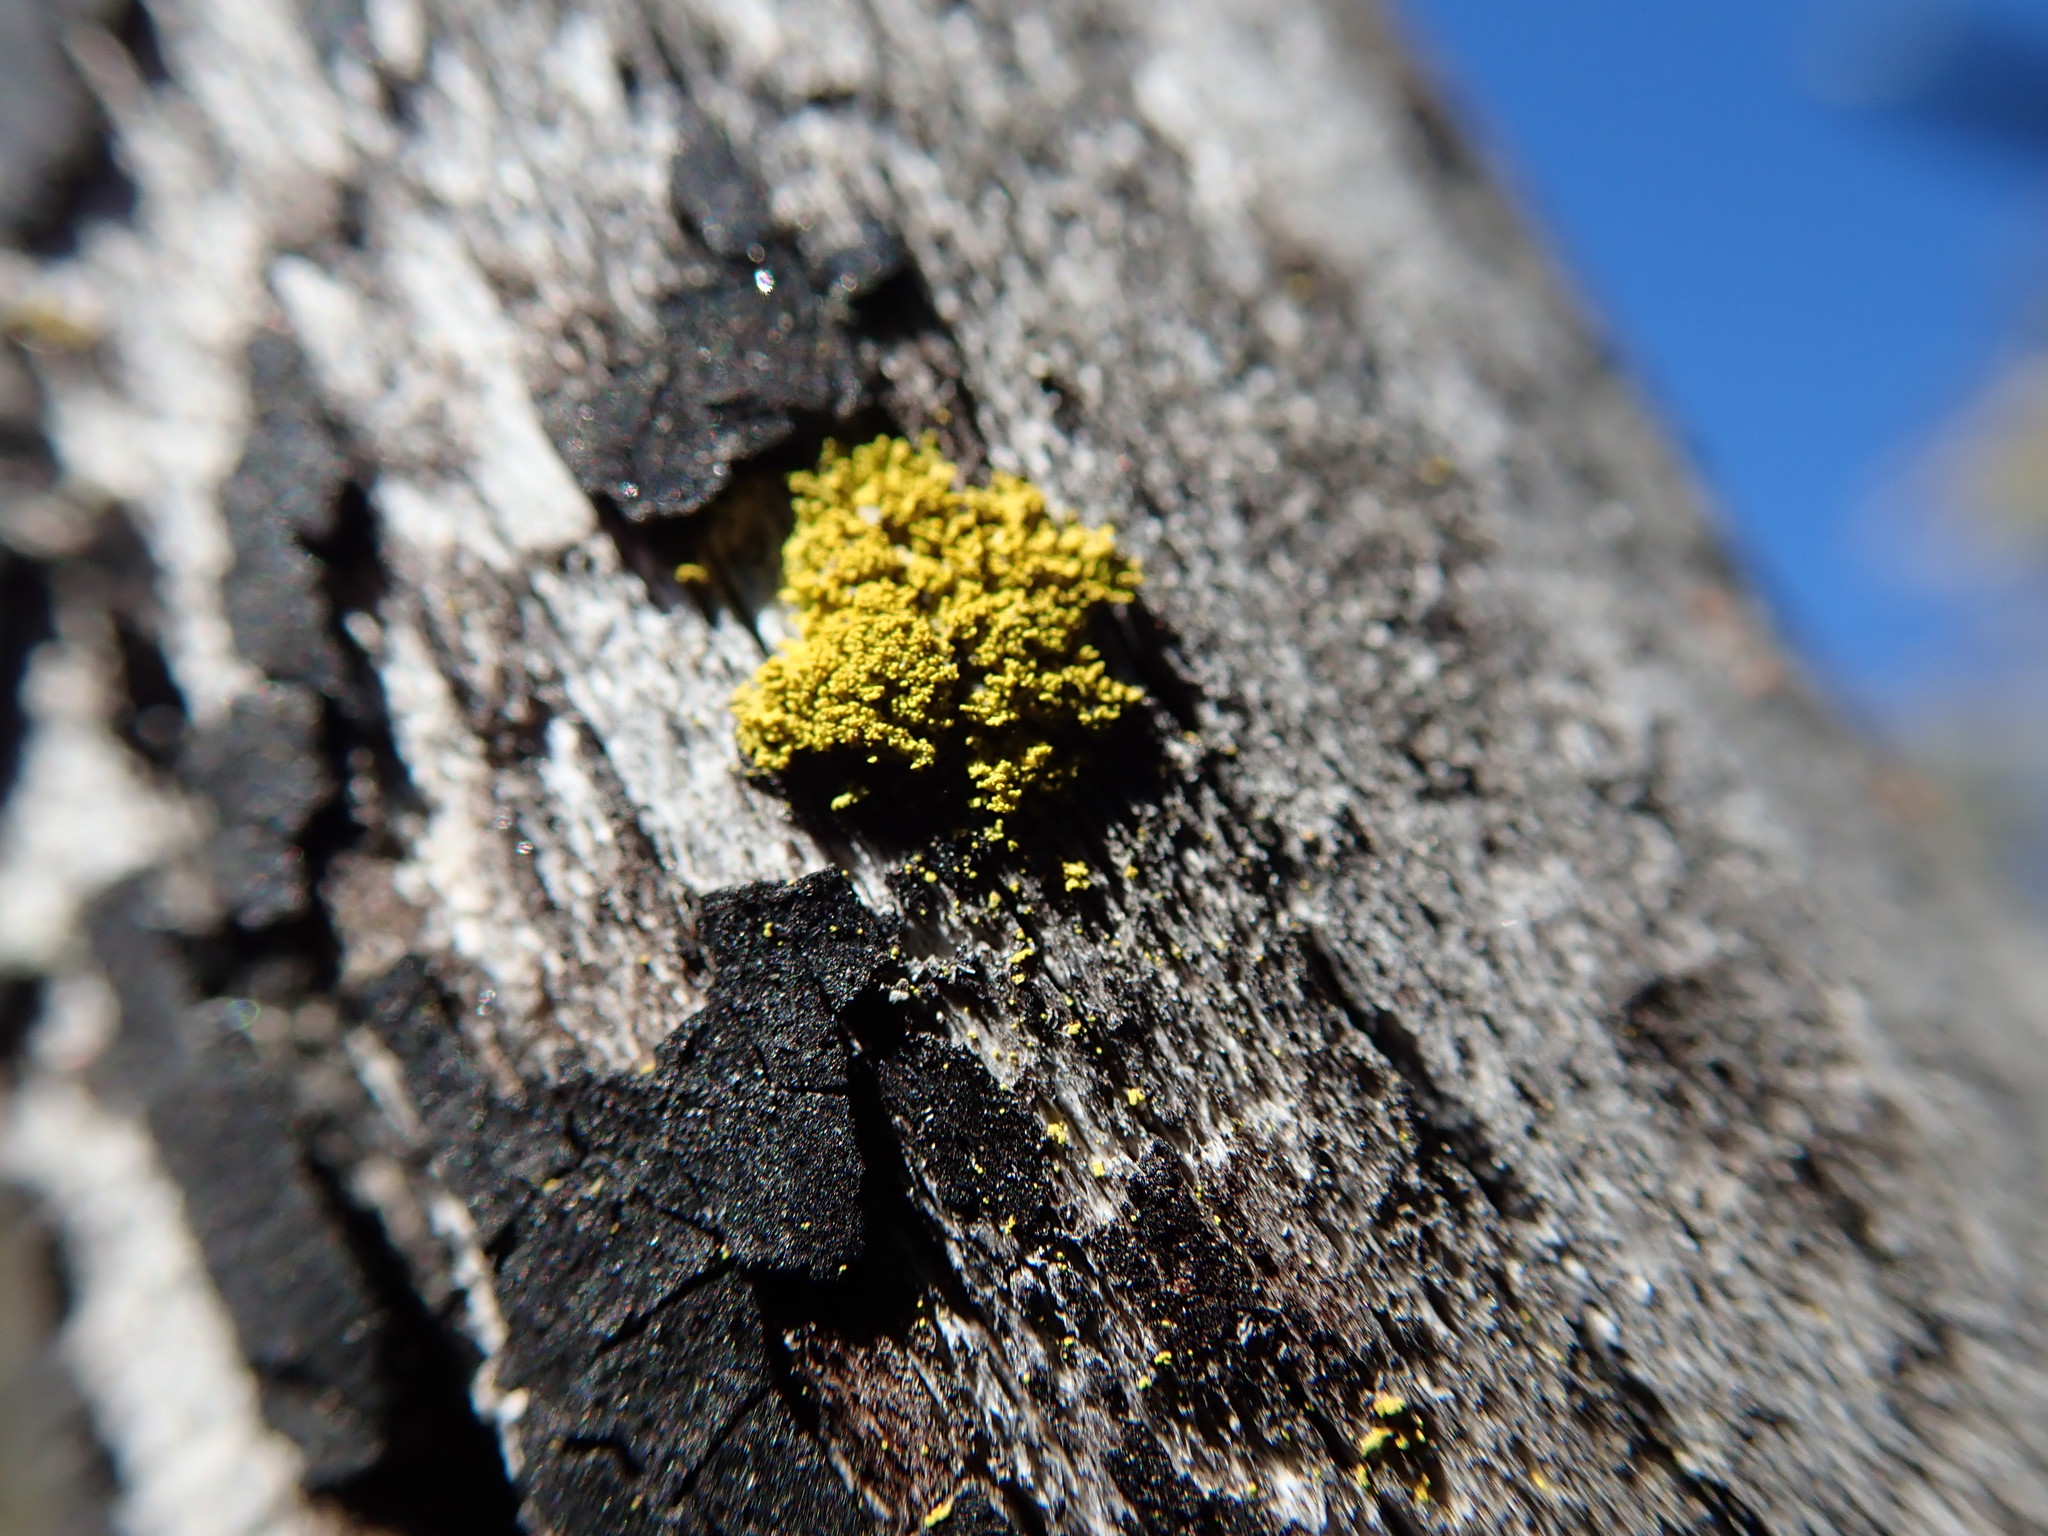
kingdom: Fungi
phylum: Ascomycota
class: Candelariomycetes
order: Candelariales
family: Candelariaceae
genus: Candelaria
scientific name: Candelaria concolor
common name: Candleflame lichen
